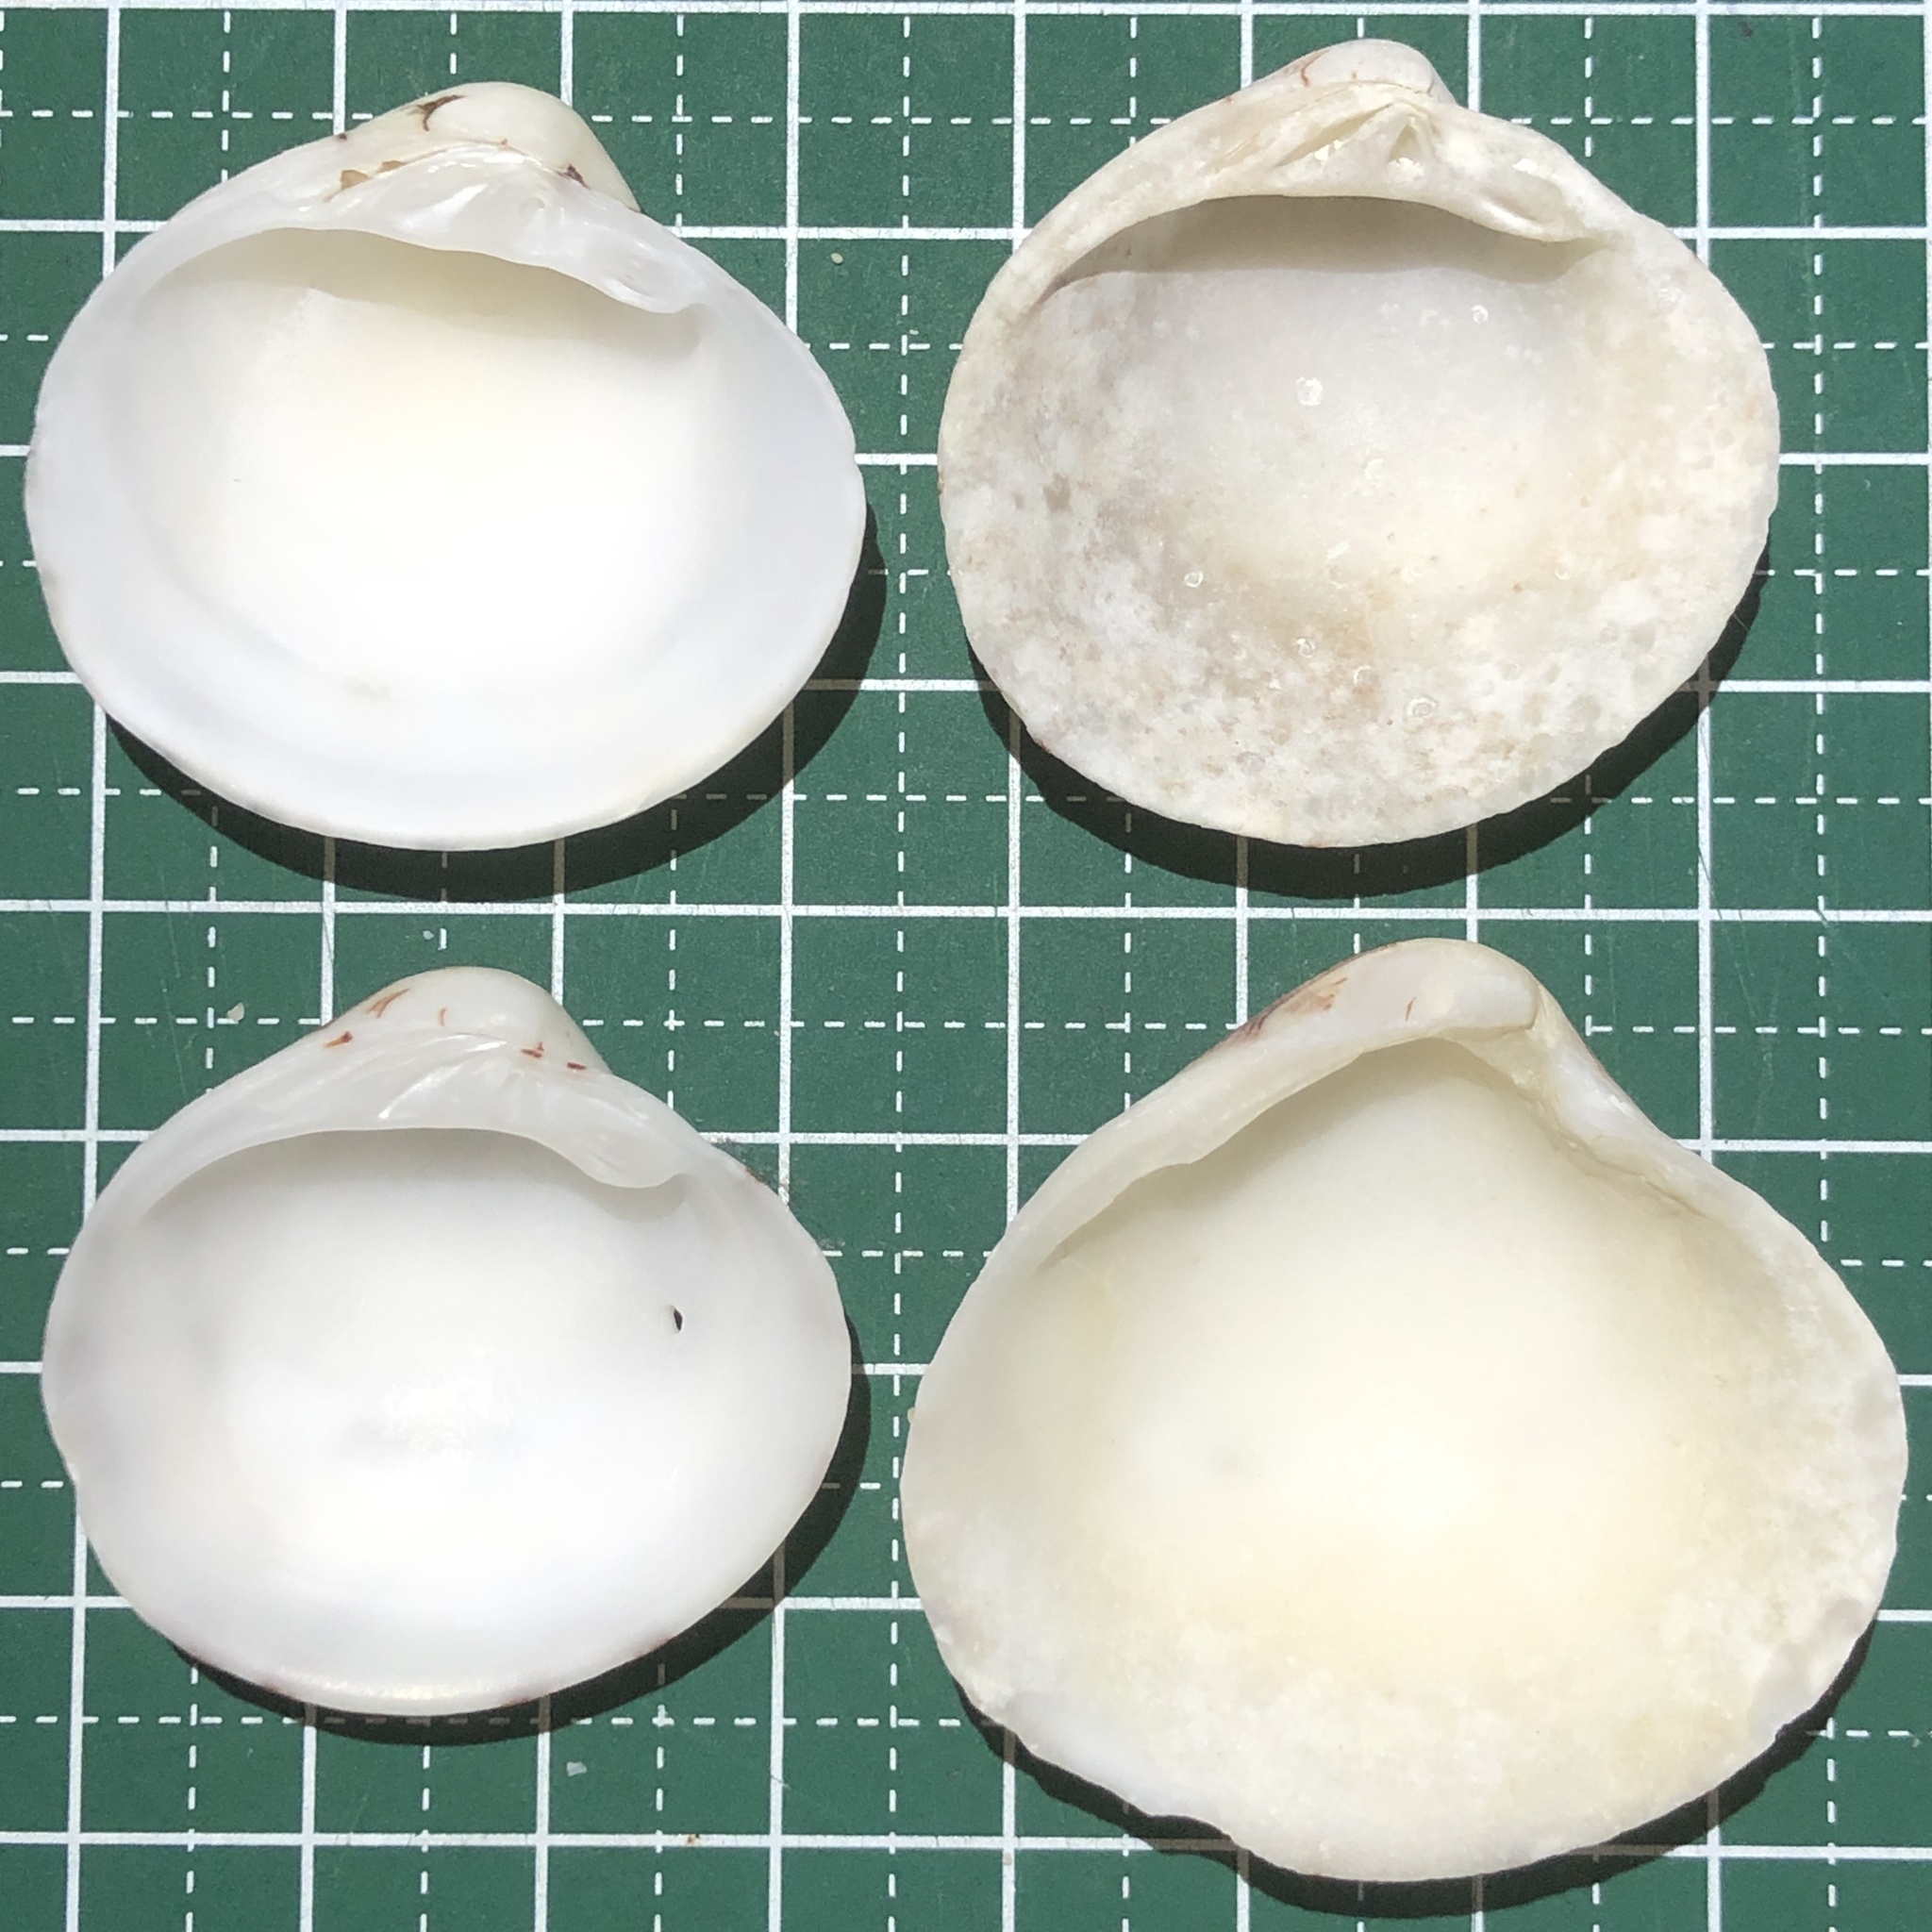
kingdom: Animalia
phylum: Mollusca
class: Bivalvia
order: Venerida
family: Veneridae
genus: Lioconcha
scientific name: Lioconcha castrensis
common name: Camp pitar-venus
